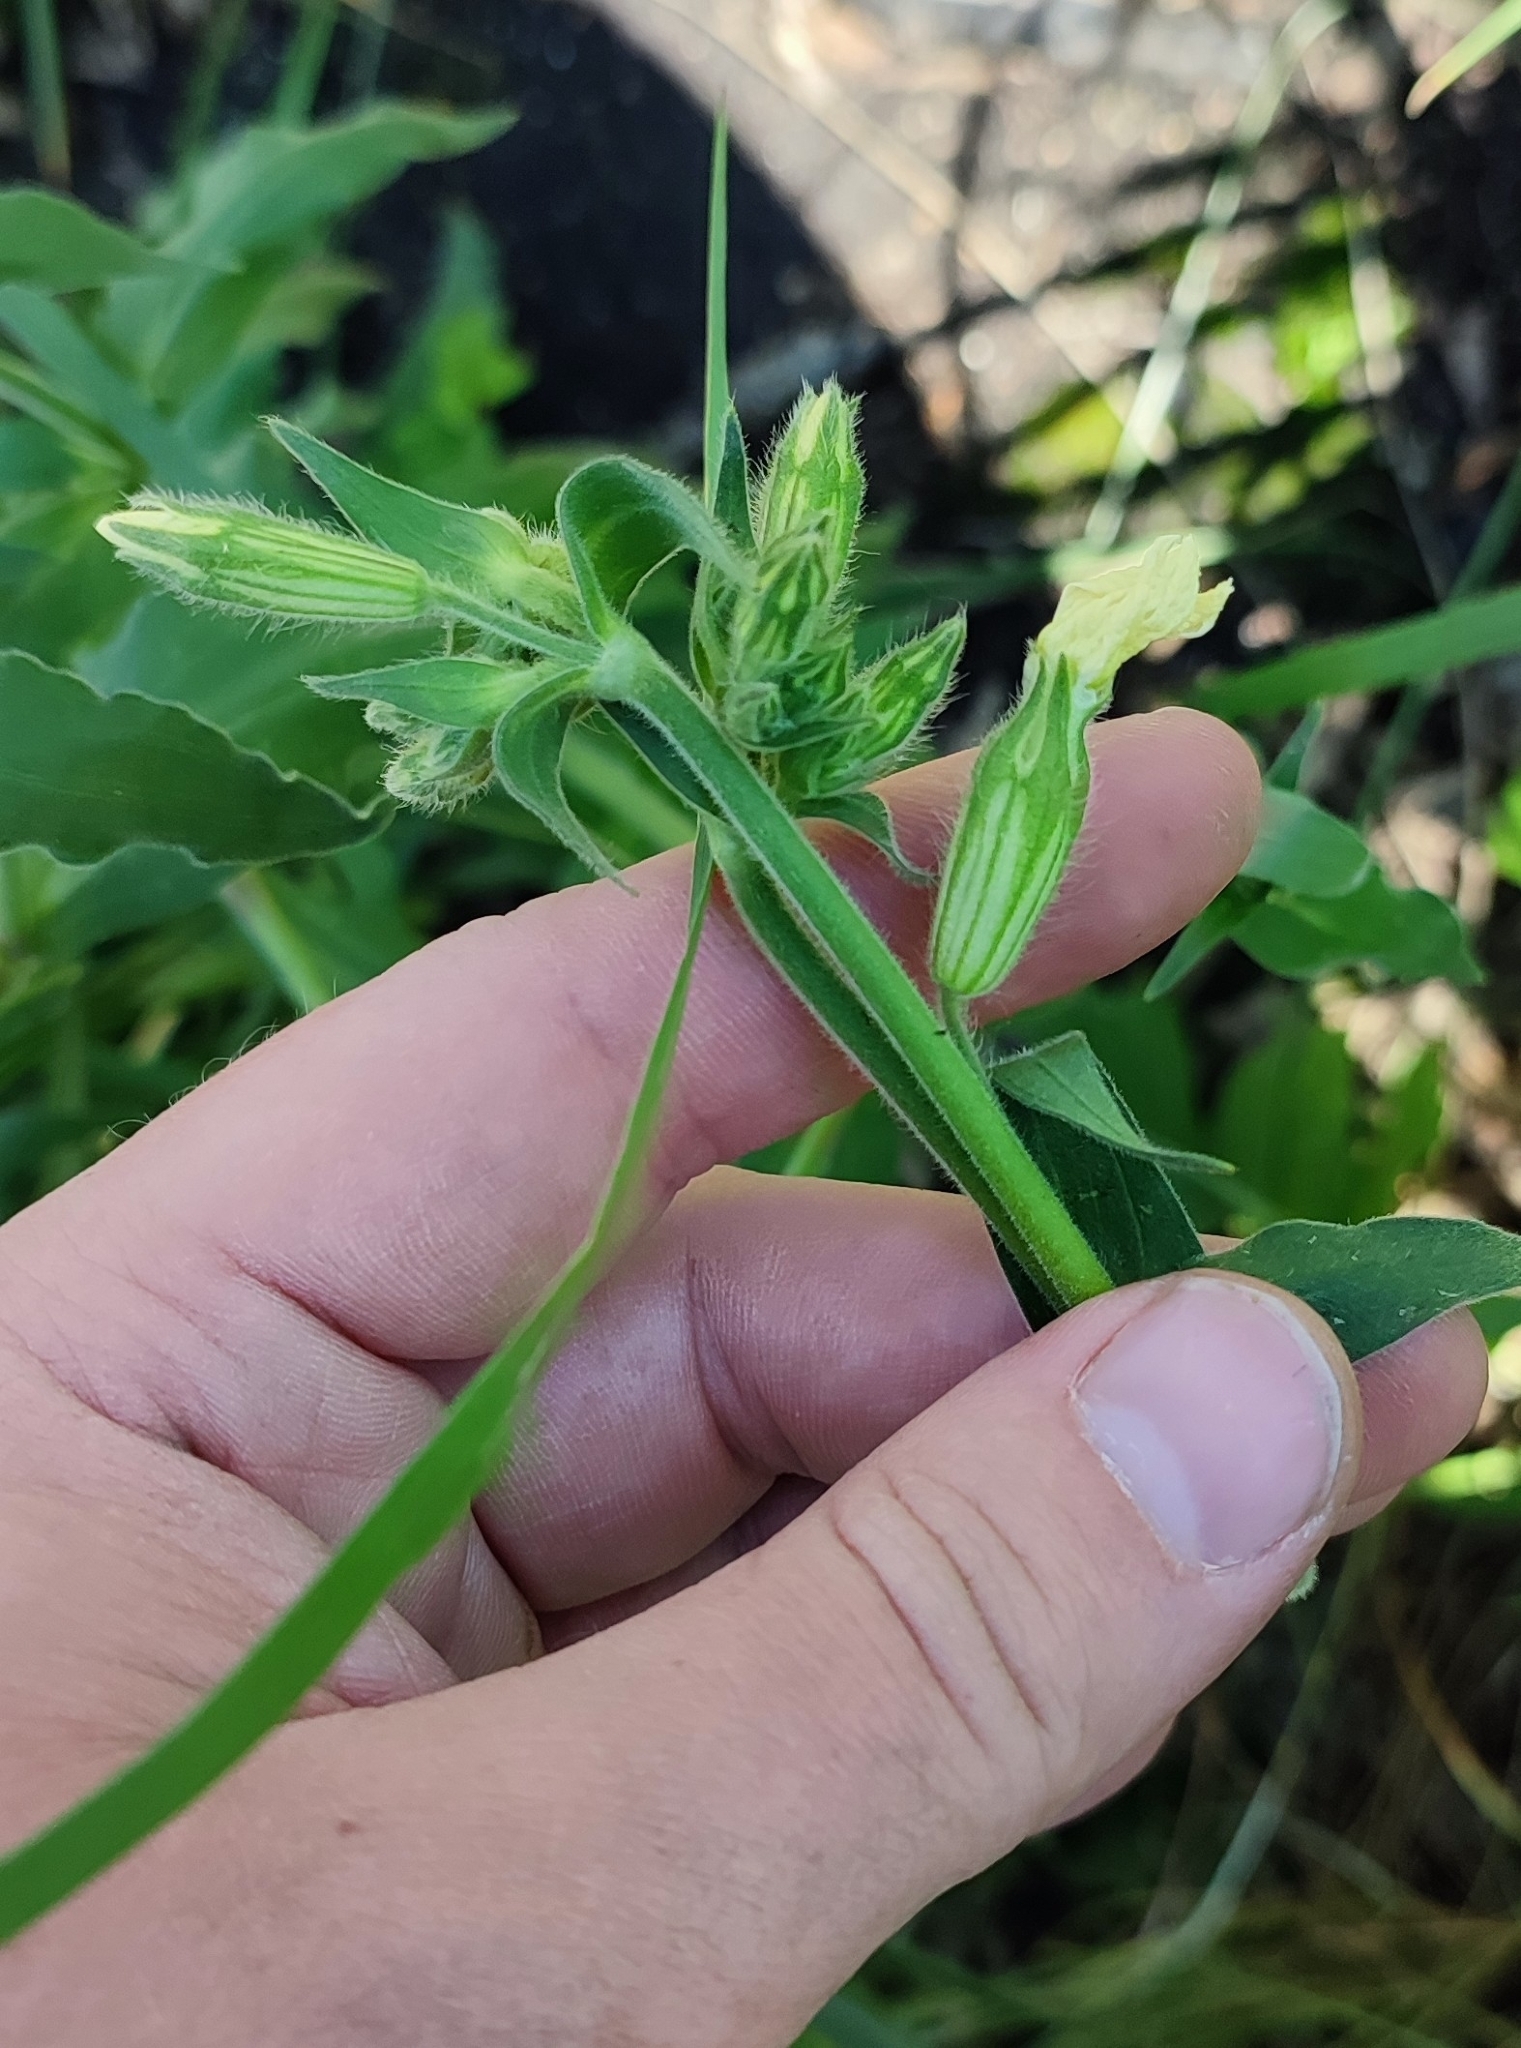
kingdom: Plantae
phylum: Tracheophyta
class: Magnoliopsida
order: Caryophyllales
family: Caryophyllaceae
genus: Silene
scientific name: Silene latifolia
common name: White campion
